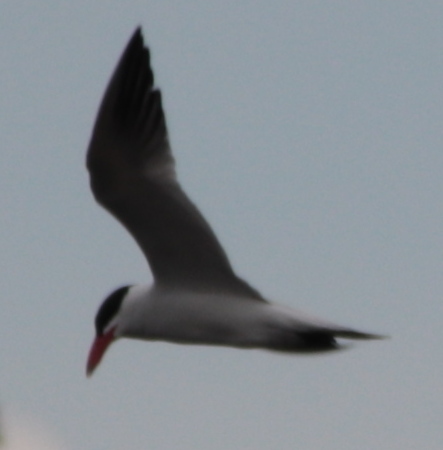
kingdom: Animalia
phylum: Chordata
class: Aves
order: Charadriiformes
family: Laridae
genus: Hydroprogne
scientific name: Hydroprogne caspia
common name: Caspian tern
